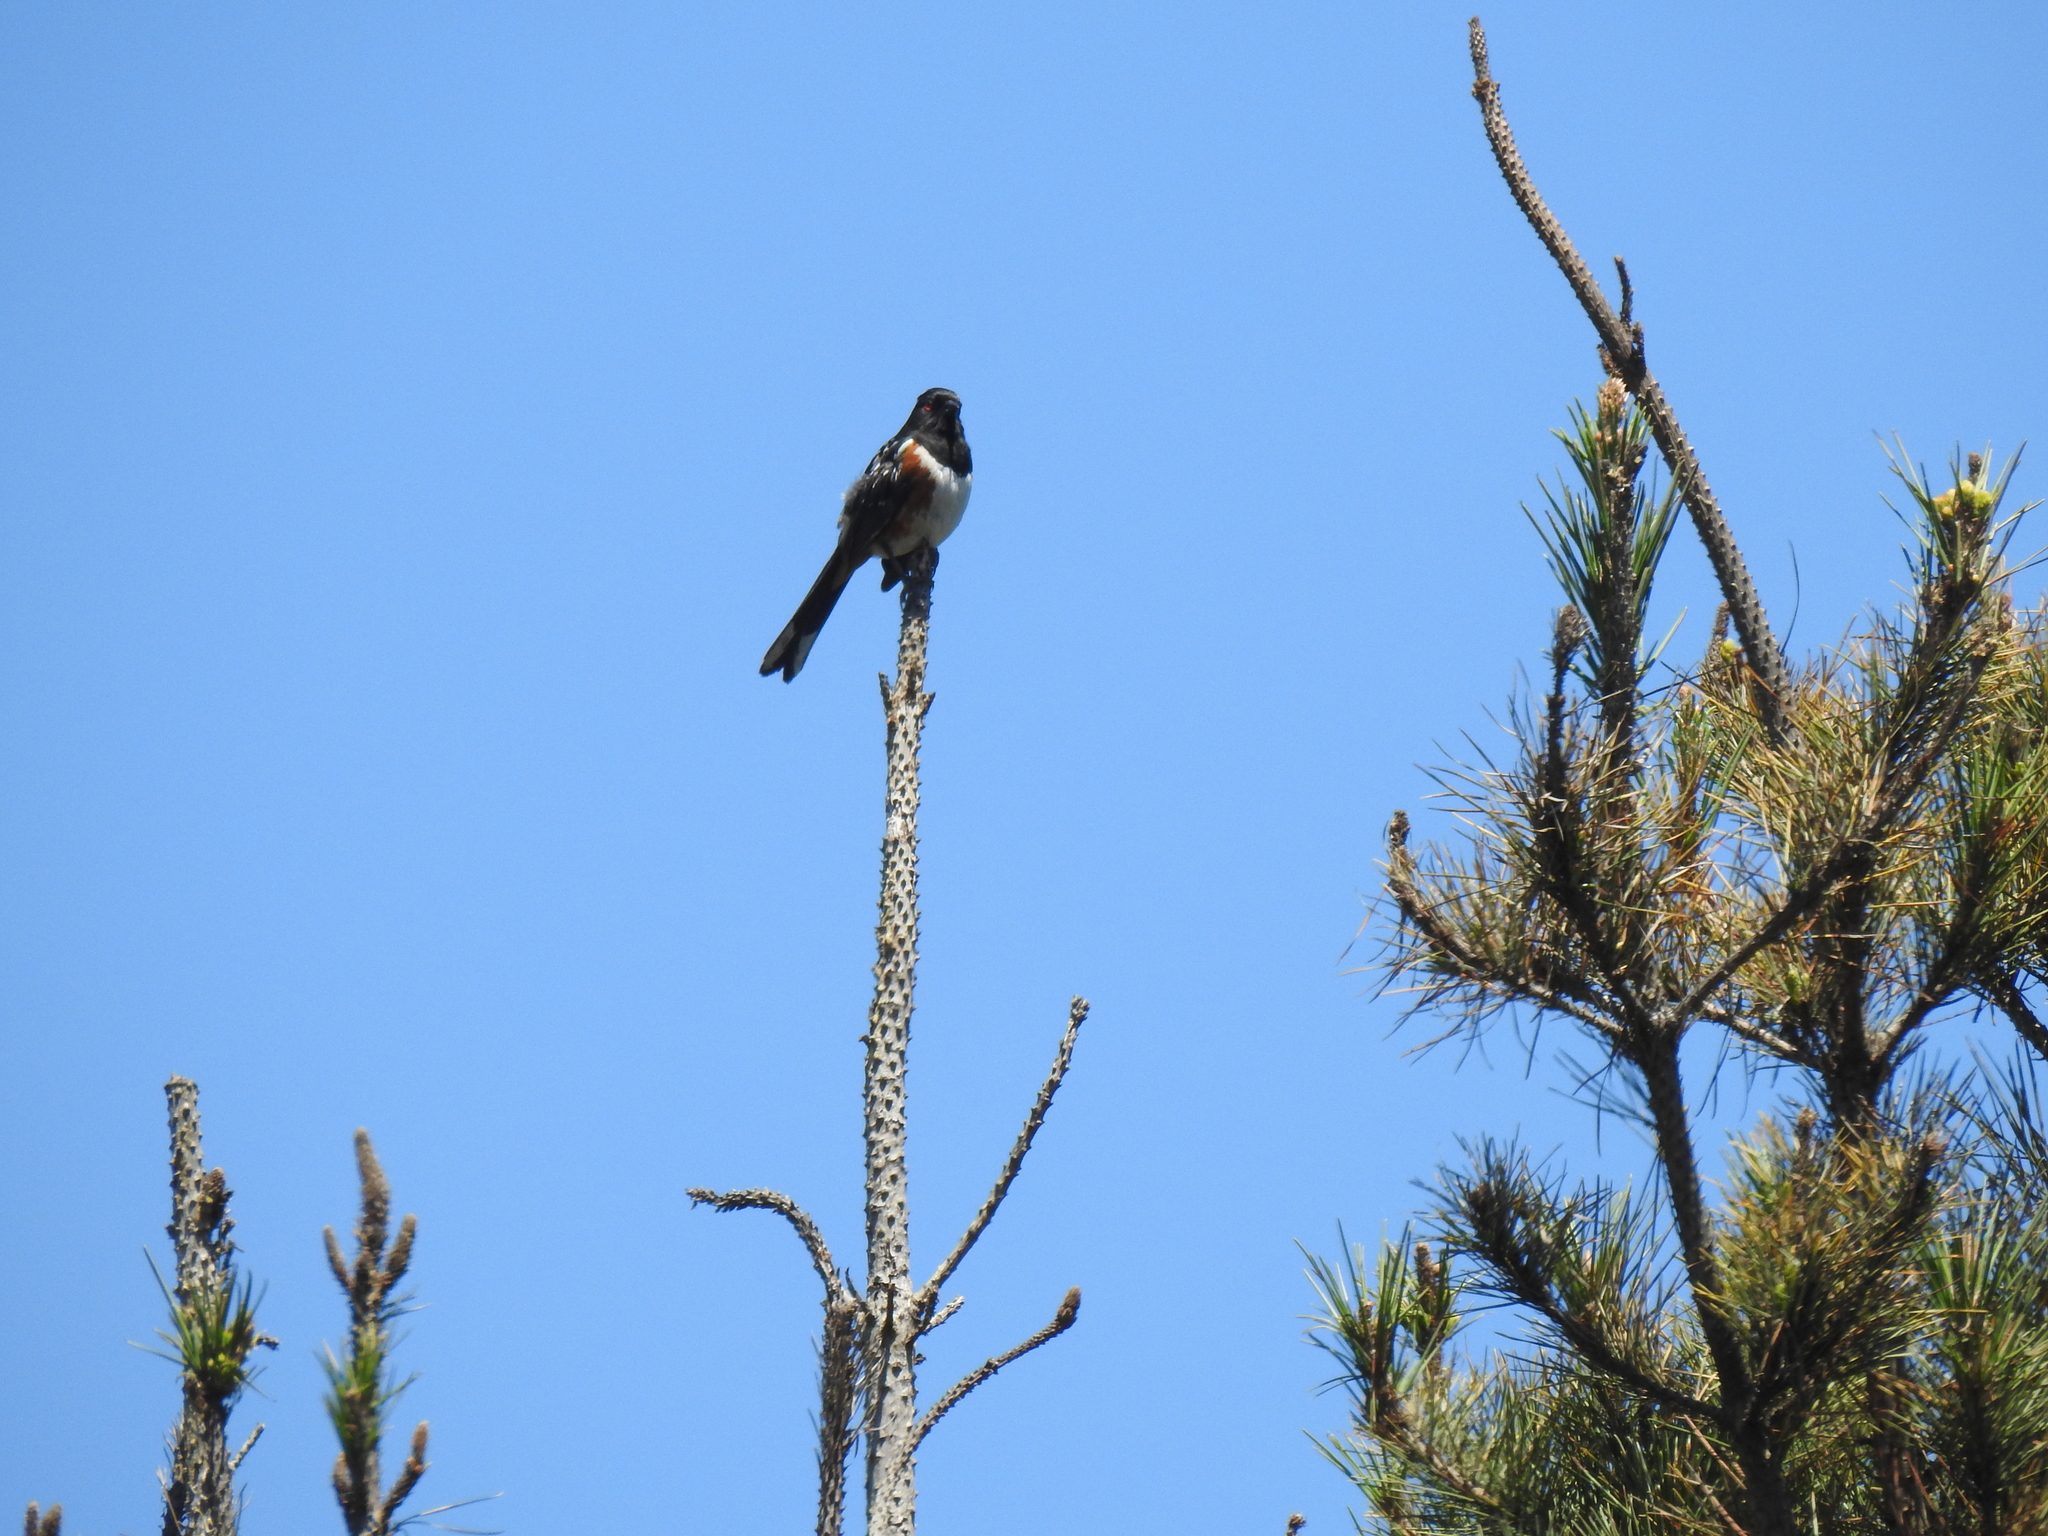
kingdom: Animalia
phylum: Chordata
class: Aves
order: Passeriformes
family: Passerellidae
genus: Pipilo
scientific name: Pipilo maculatus
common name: Spotted towhee
